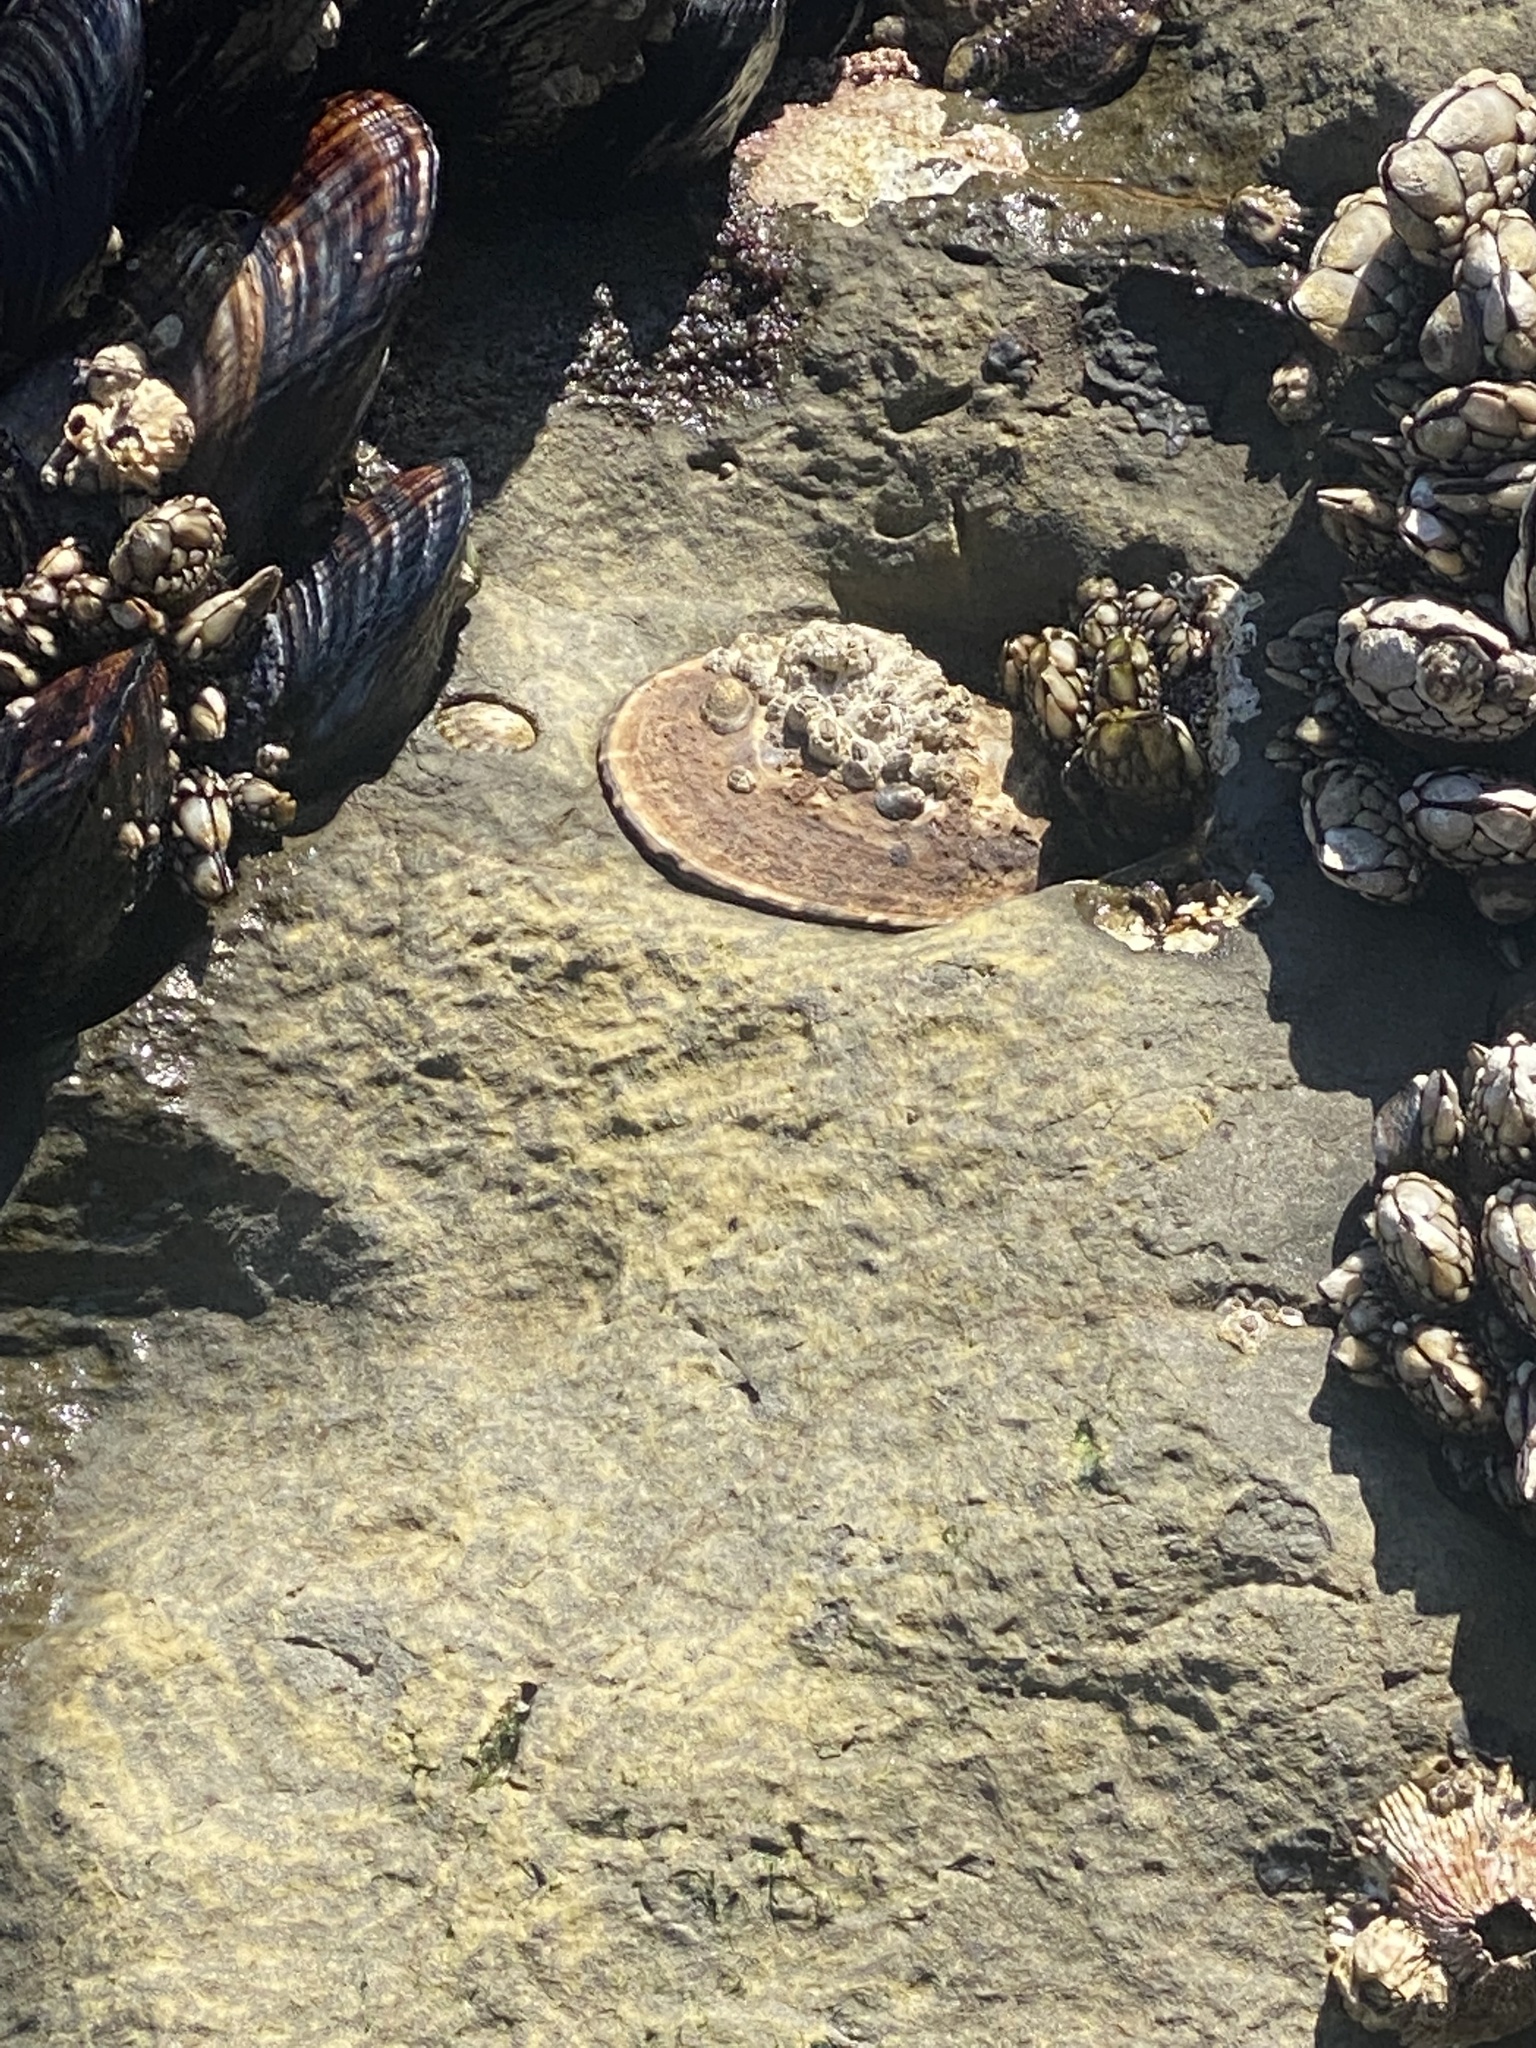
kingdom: Animalia
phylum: Mollusca
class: Gastropoda
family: Lottiidae
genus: Lottia
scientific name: Lottia gigantea
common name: Owl limpet
